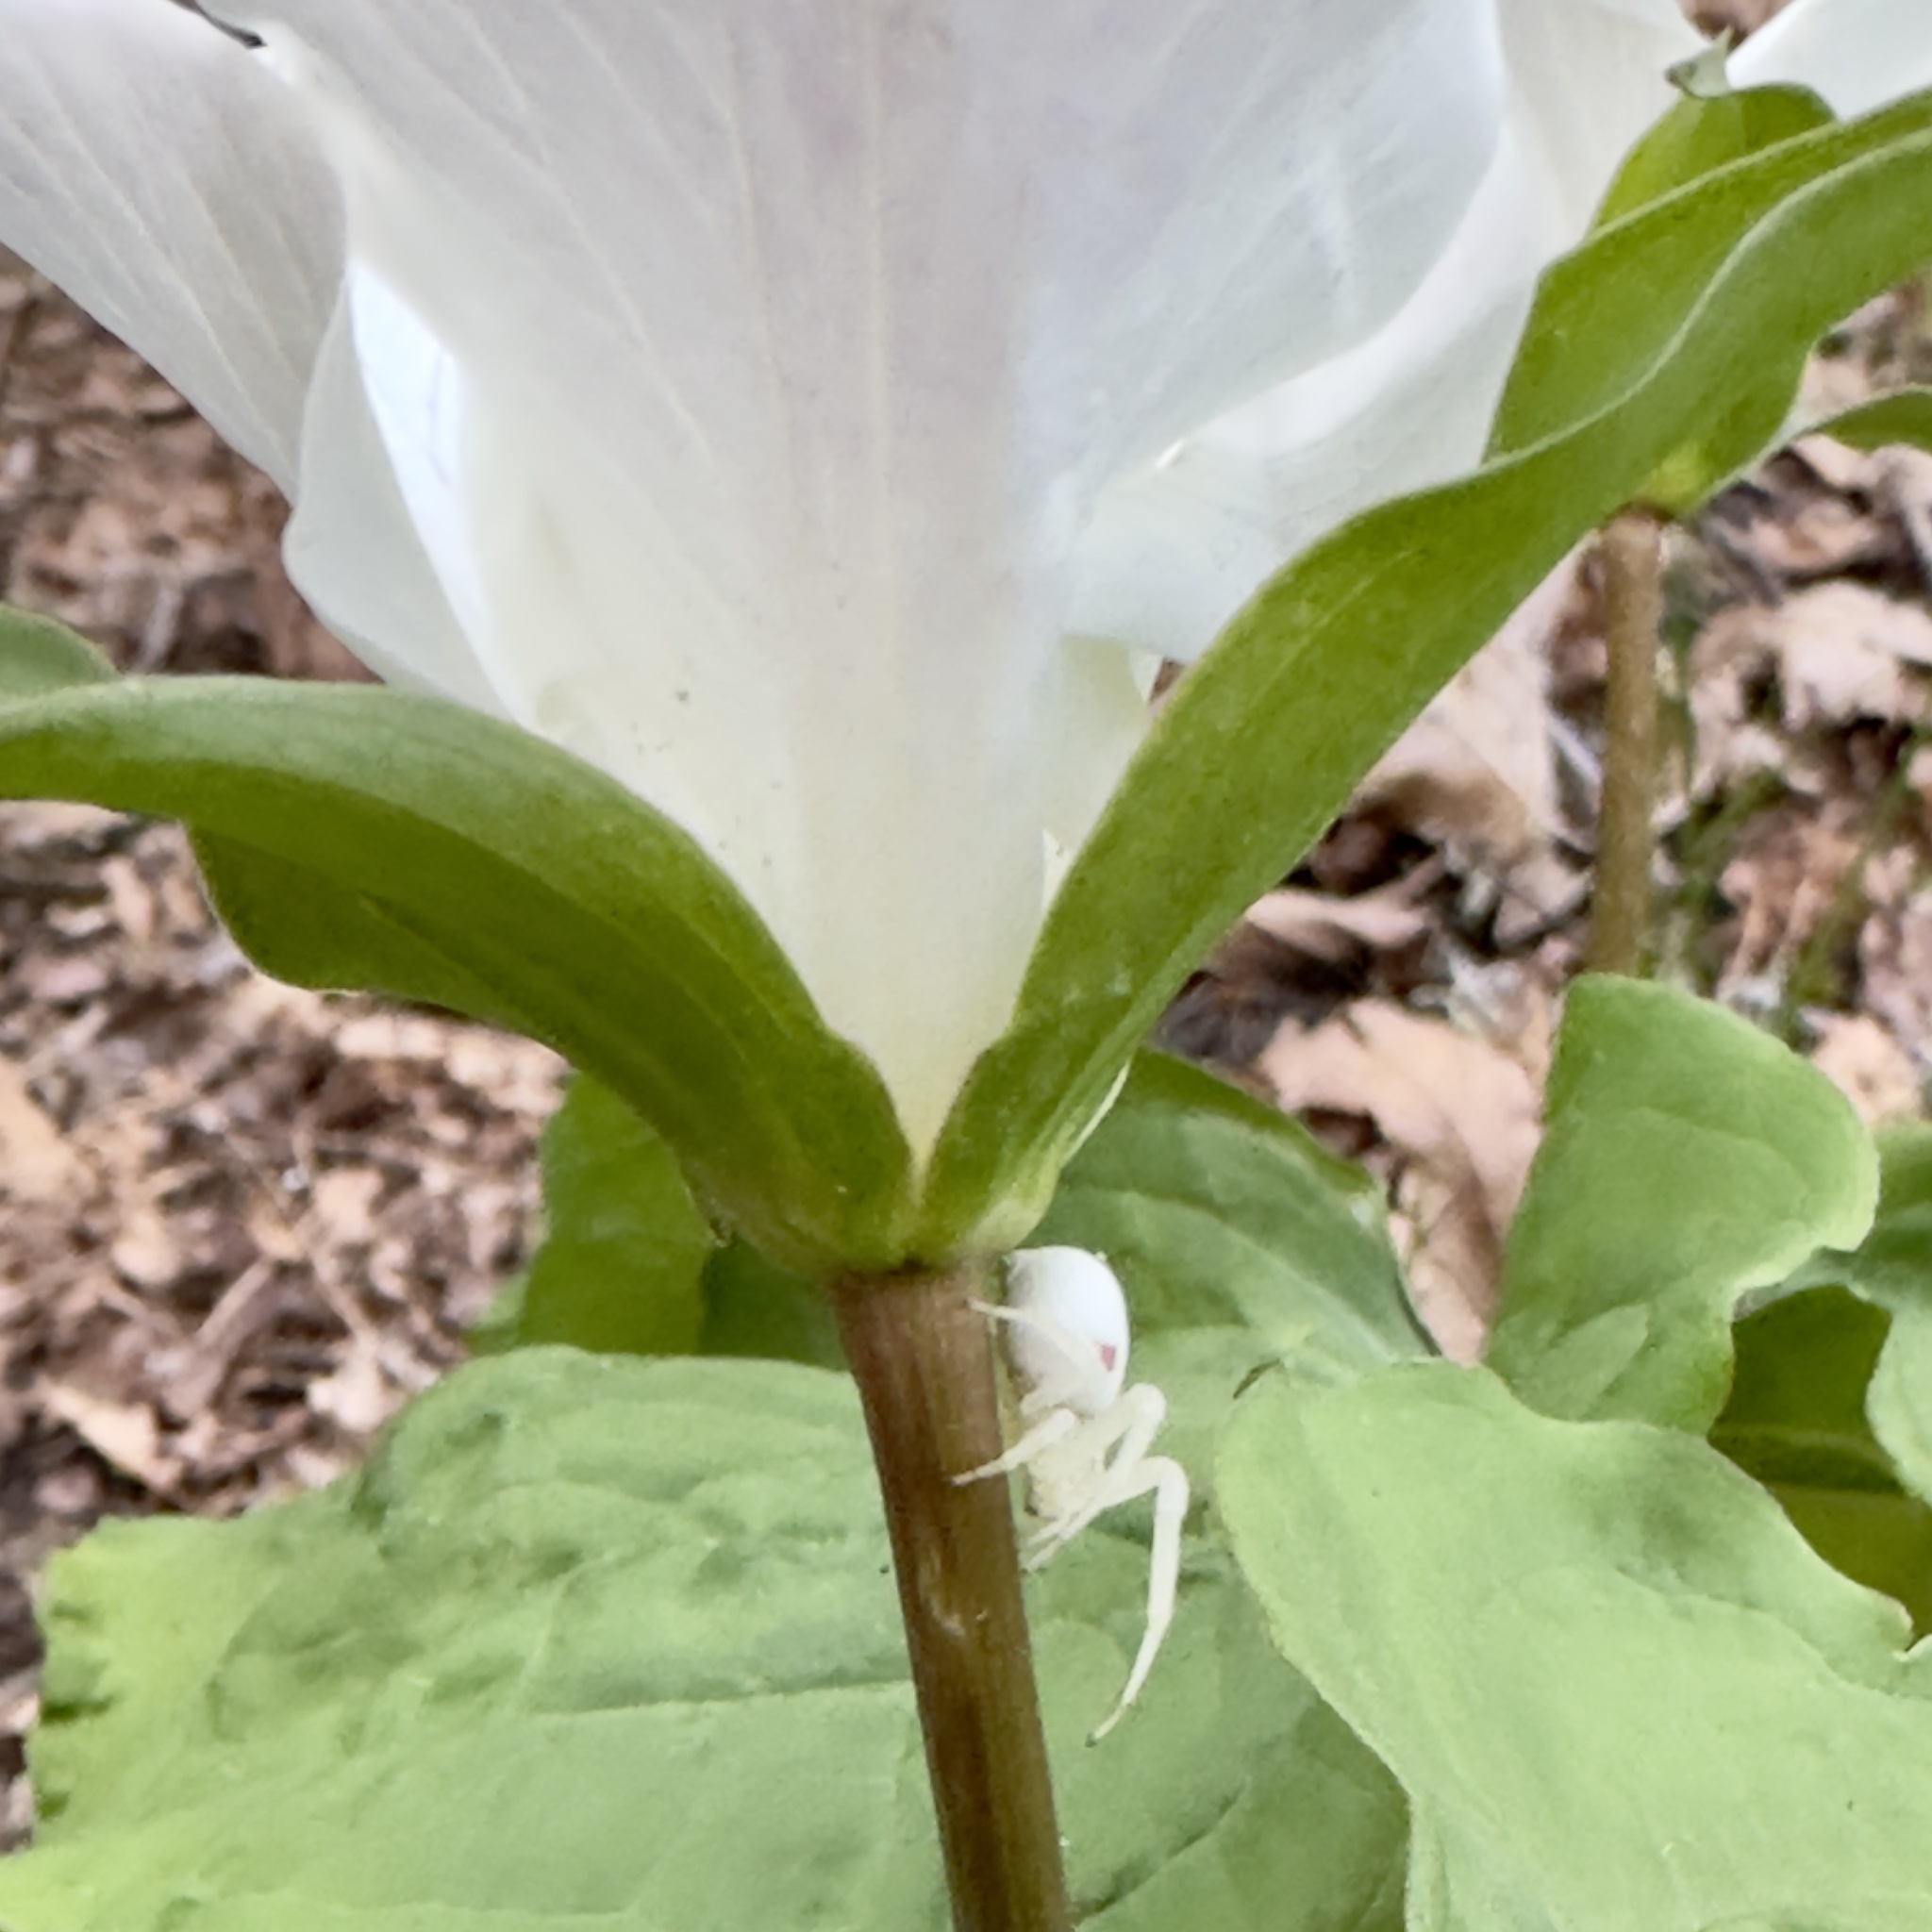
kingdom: Animalia
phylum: Arthropoda
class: Arachnida
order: Araneae
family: Thomisidae
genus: Misumena
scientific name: Misumena vatia
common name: Goldenrod crab spider
